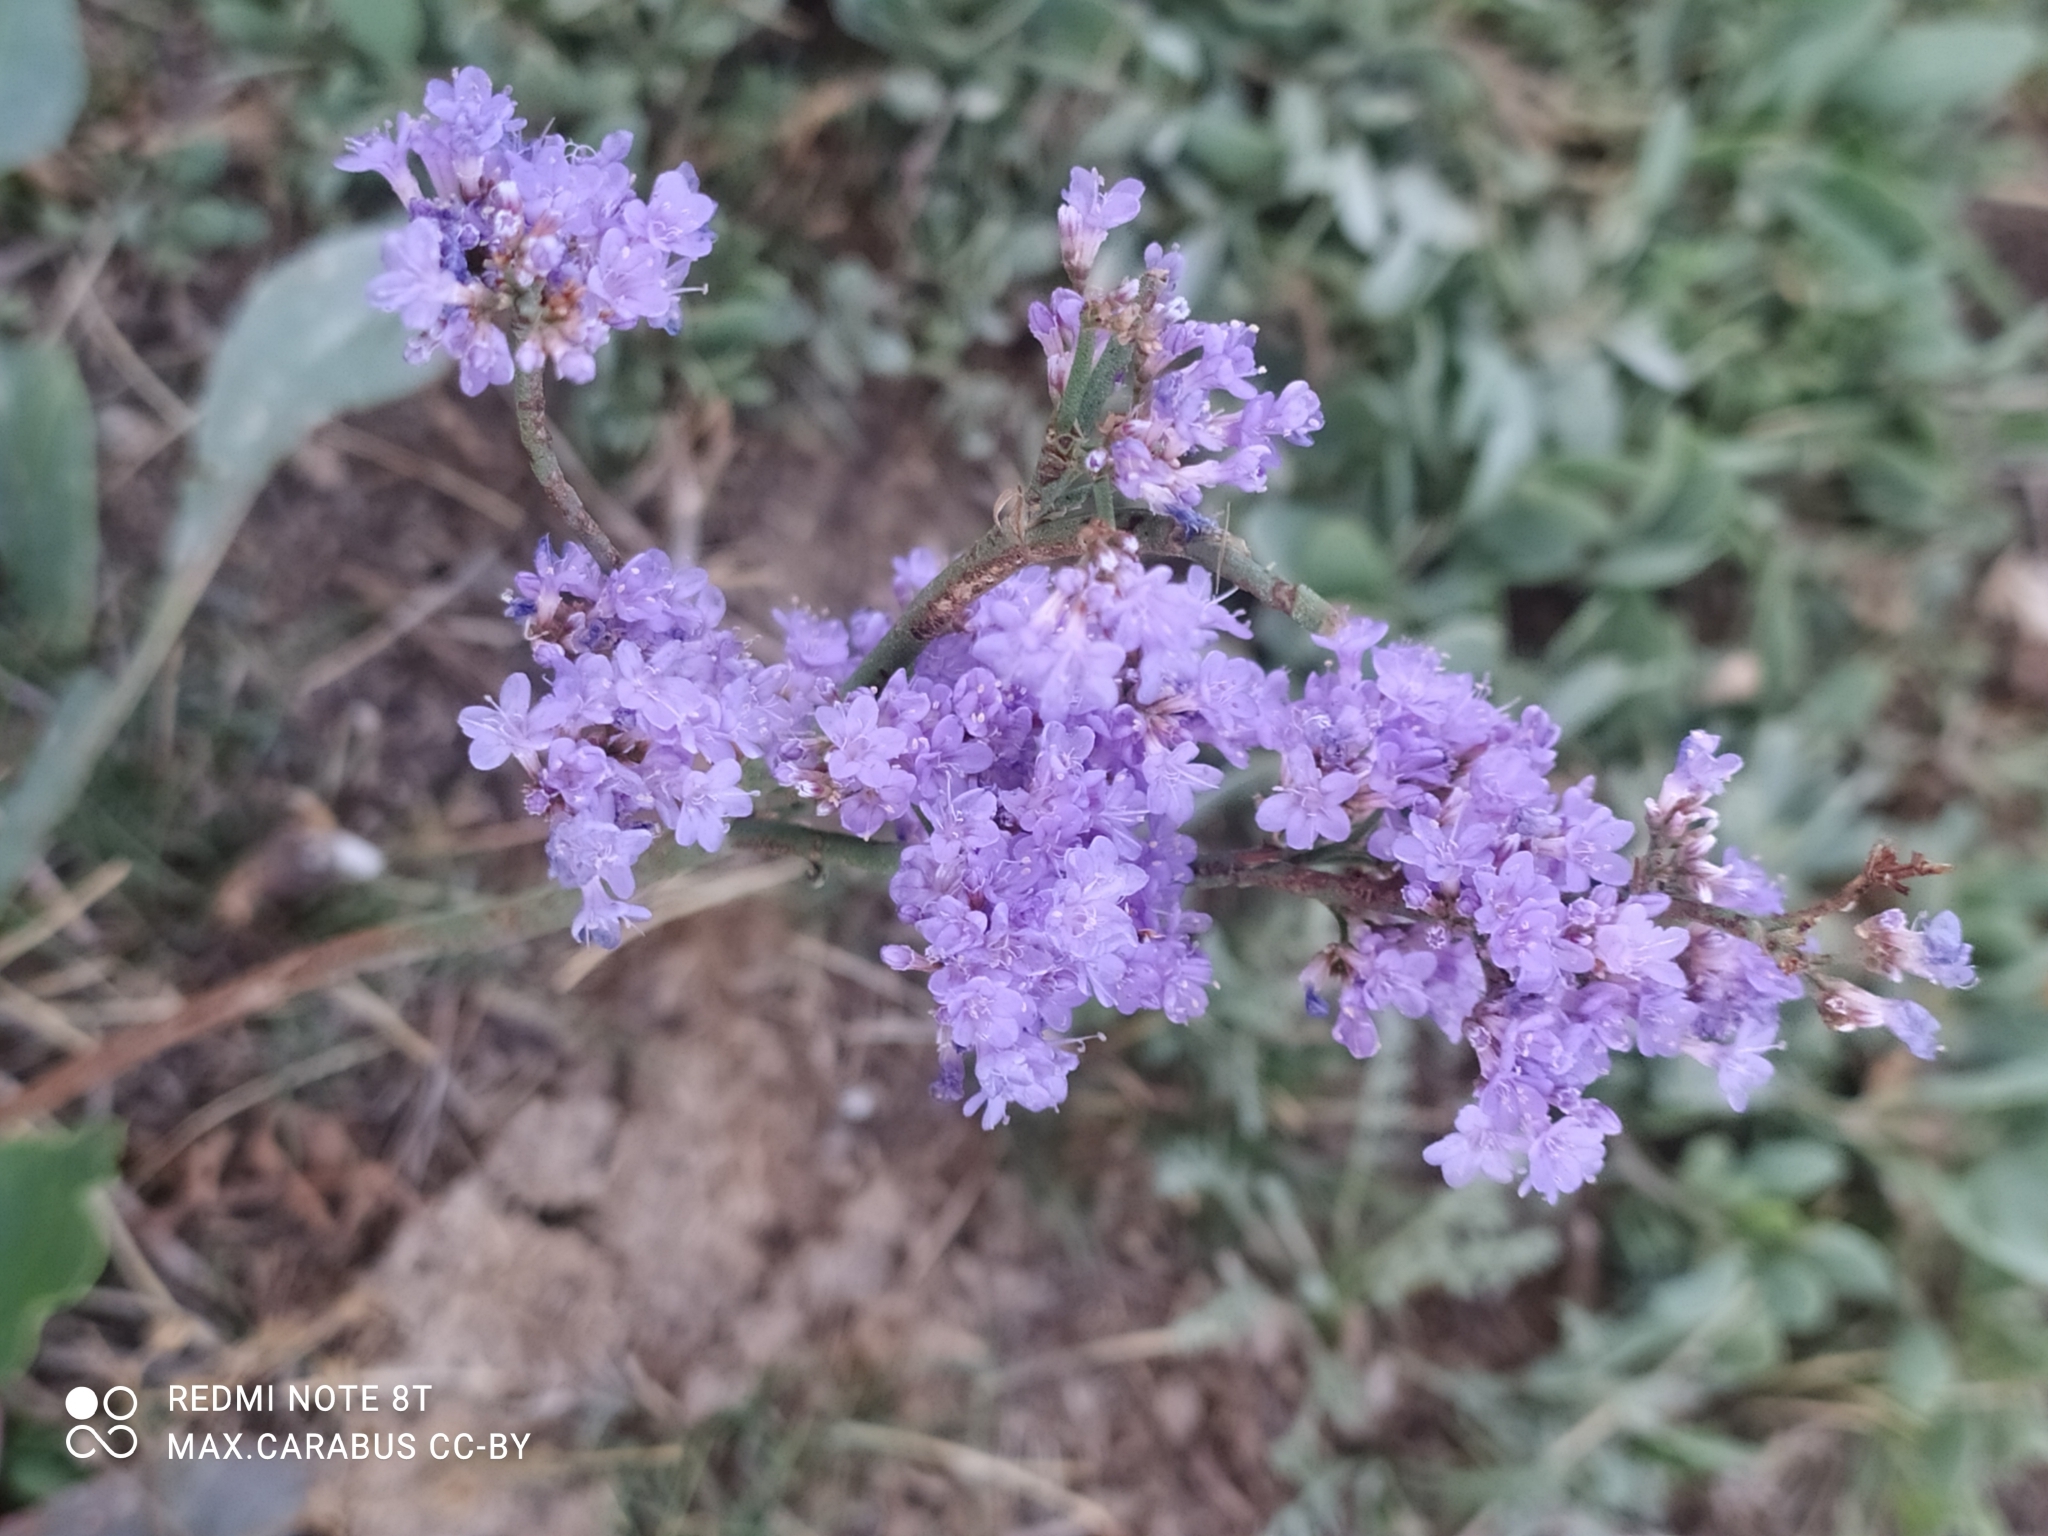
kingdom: Plantae
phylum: Tracheophyta
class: Magnoliopsida
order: Caryophyllales
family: Plumbaginaceae
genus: Limonium
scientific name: Limonium gmelini
